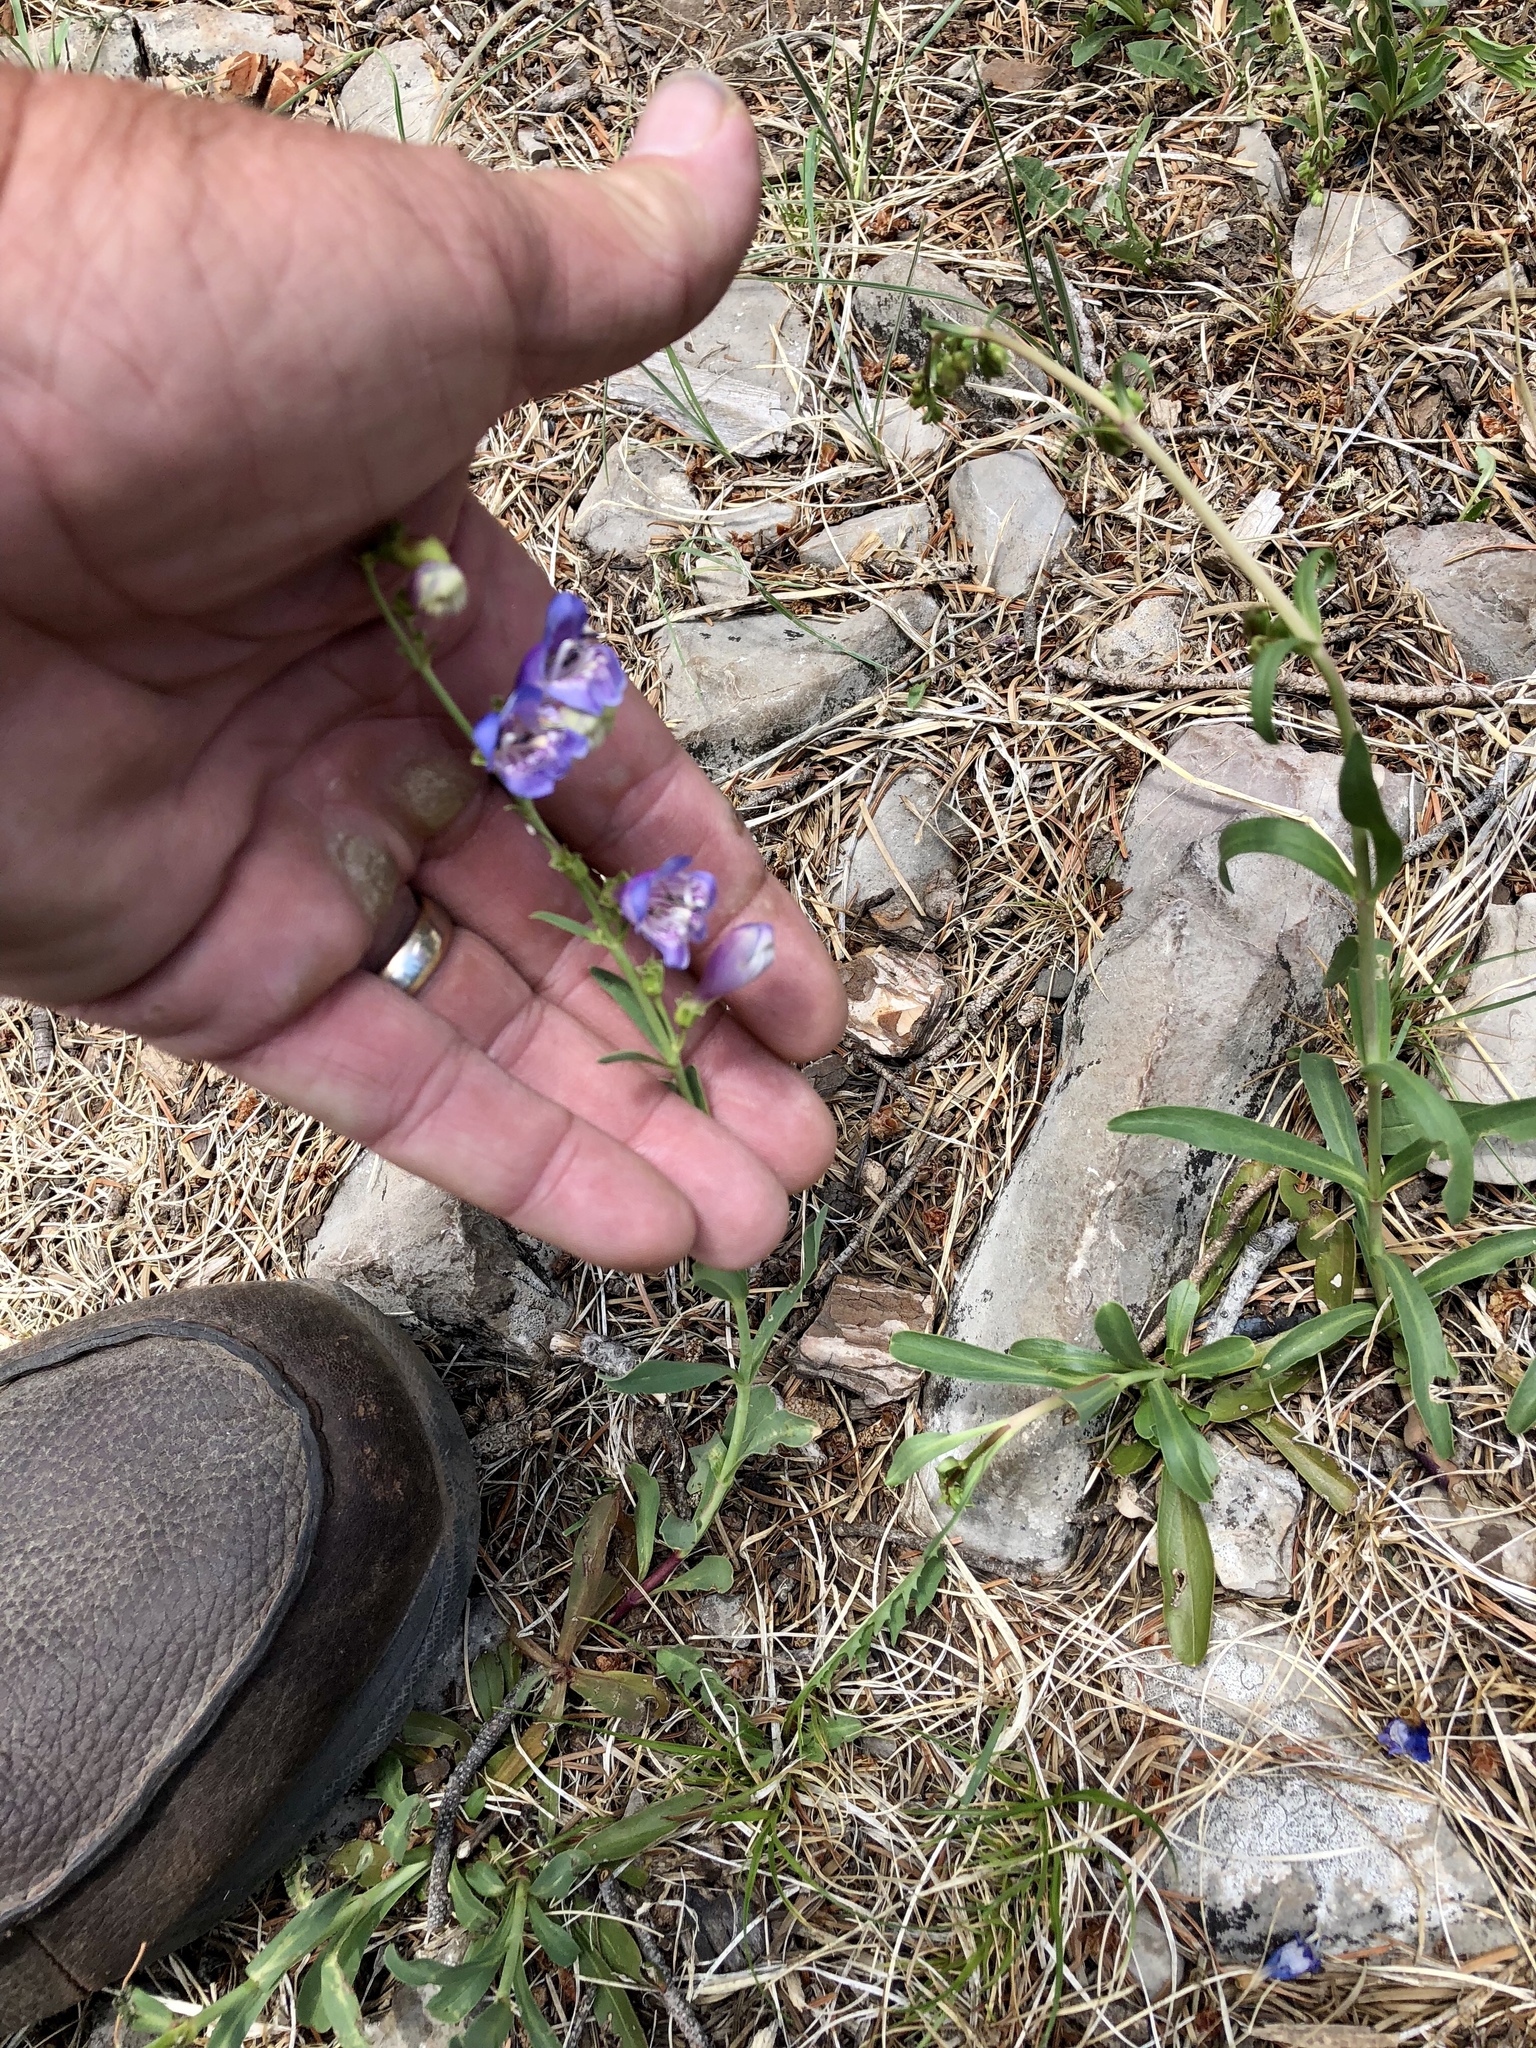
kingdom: Plantae
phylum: Tracheophyta
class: Magnoliopsida
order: Lamiales
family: Plantaginaceae
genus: Penstemon
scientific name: Penstemon neomexicanus
